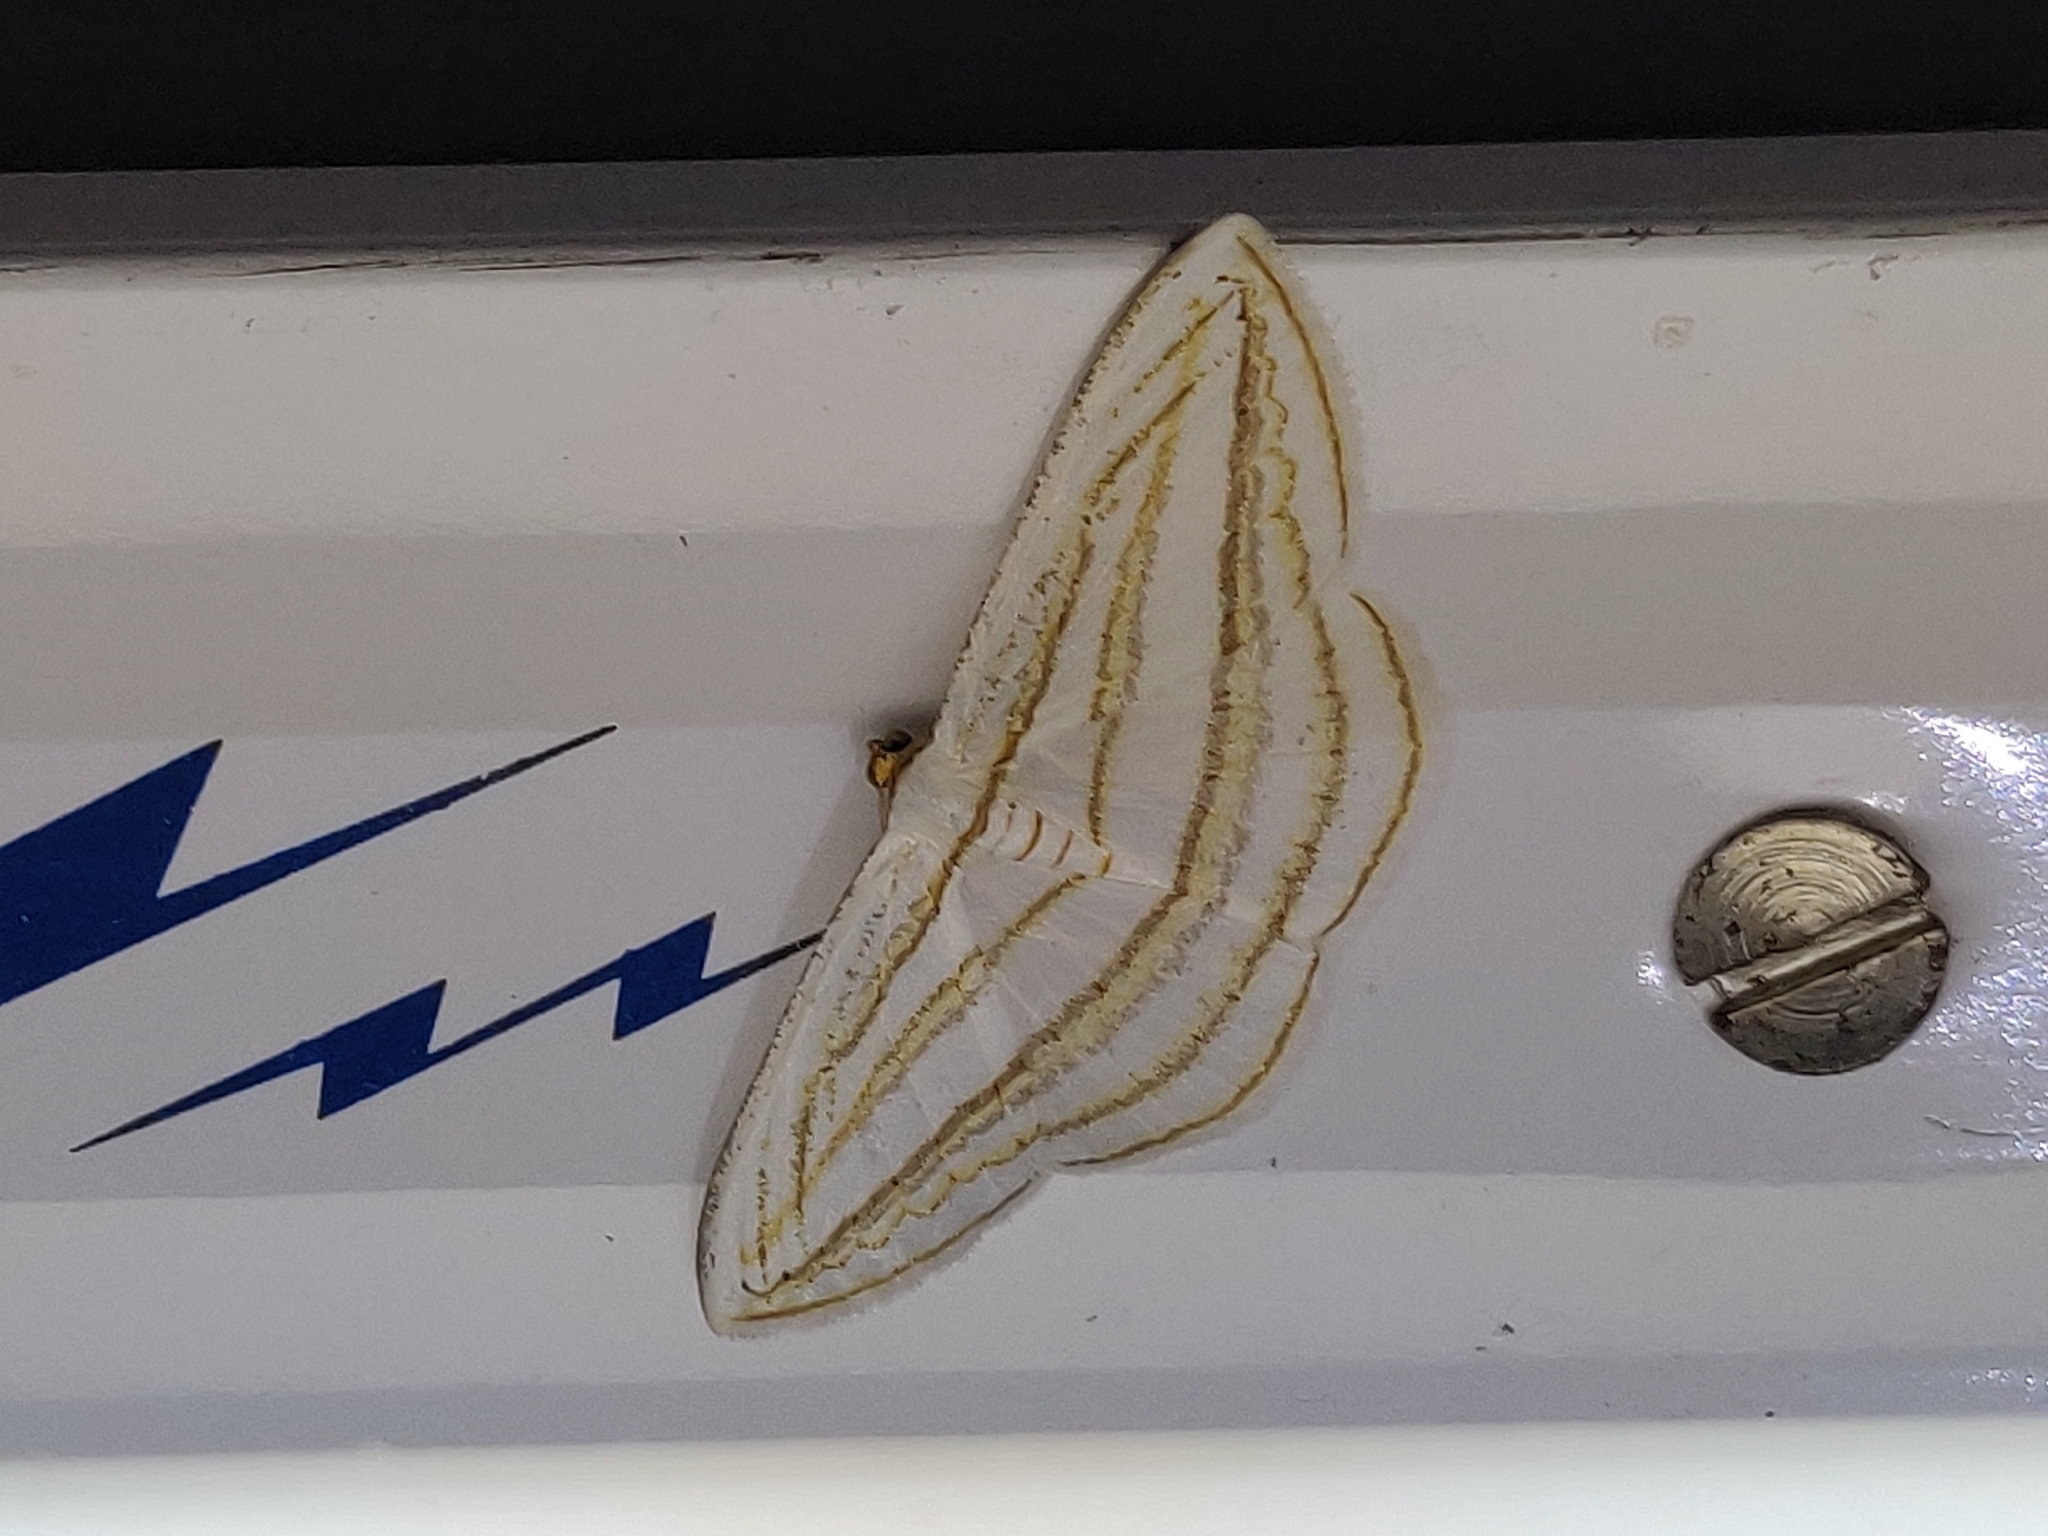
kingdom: Animalia
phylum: Arthropoda
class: Insecta
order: Lepidoptera
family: Geometridae
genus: Orthocabera
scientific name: Orthocabera sericea
